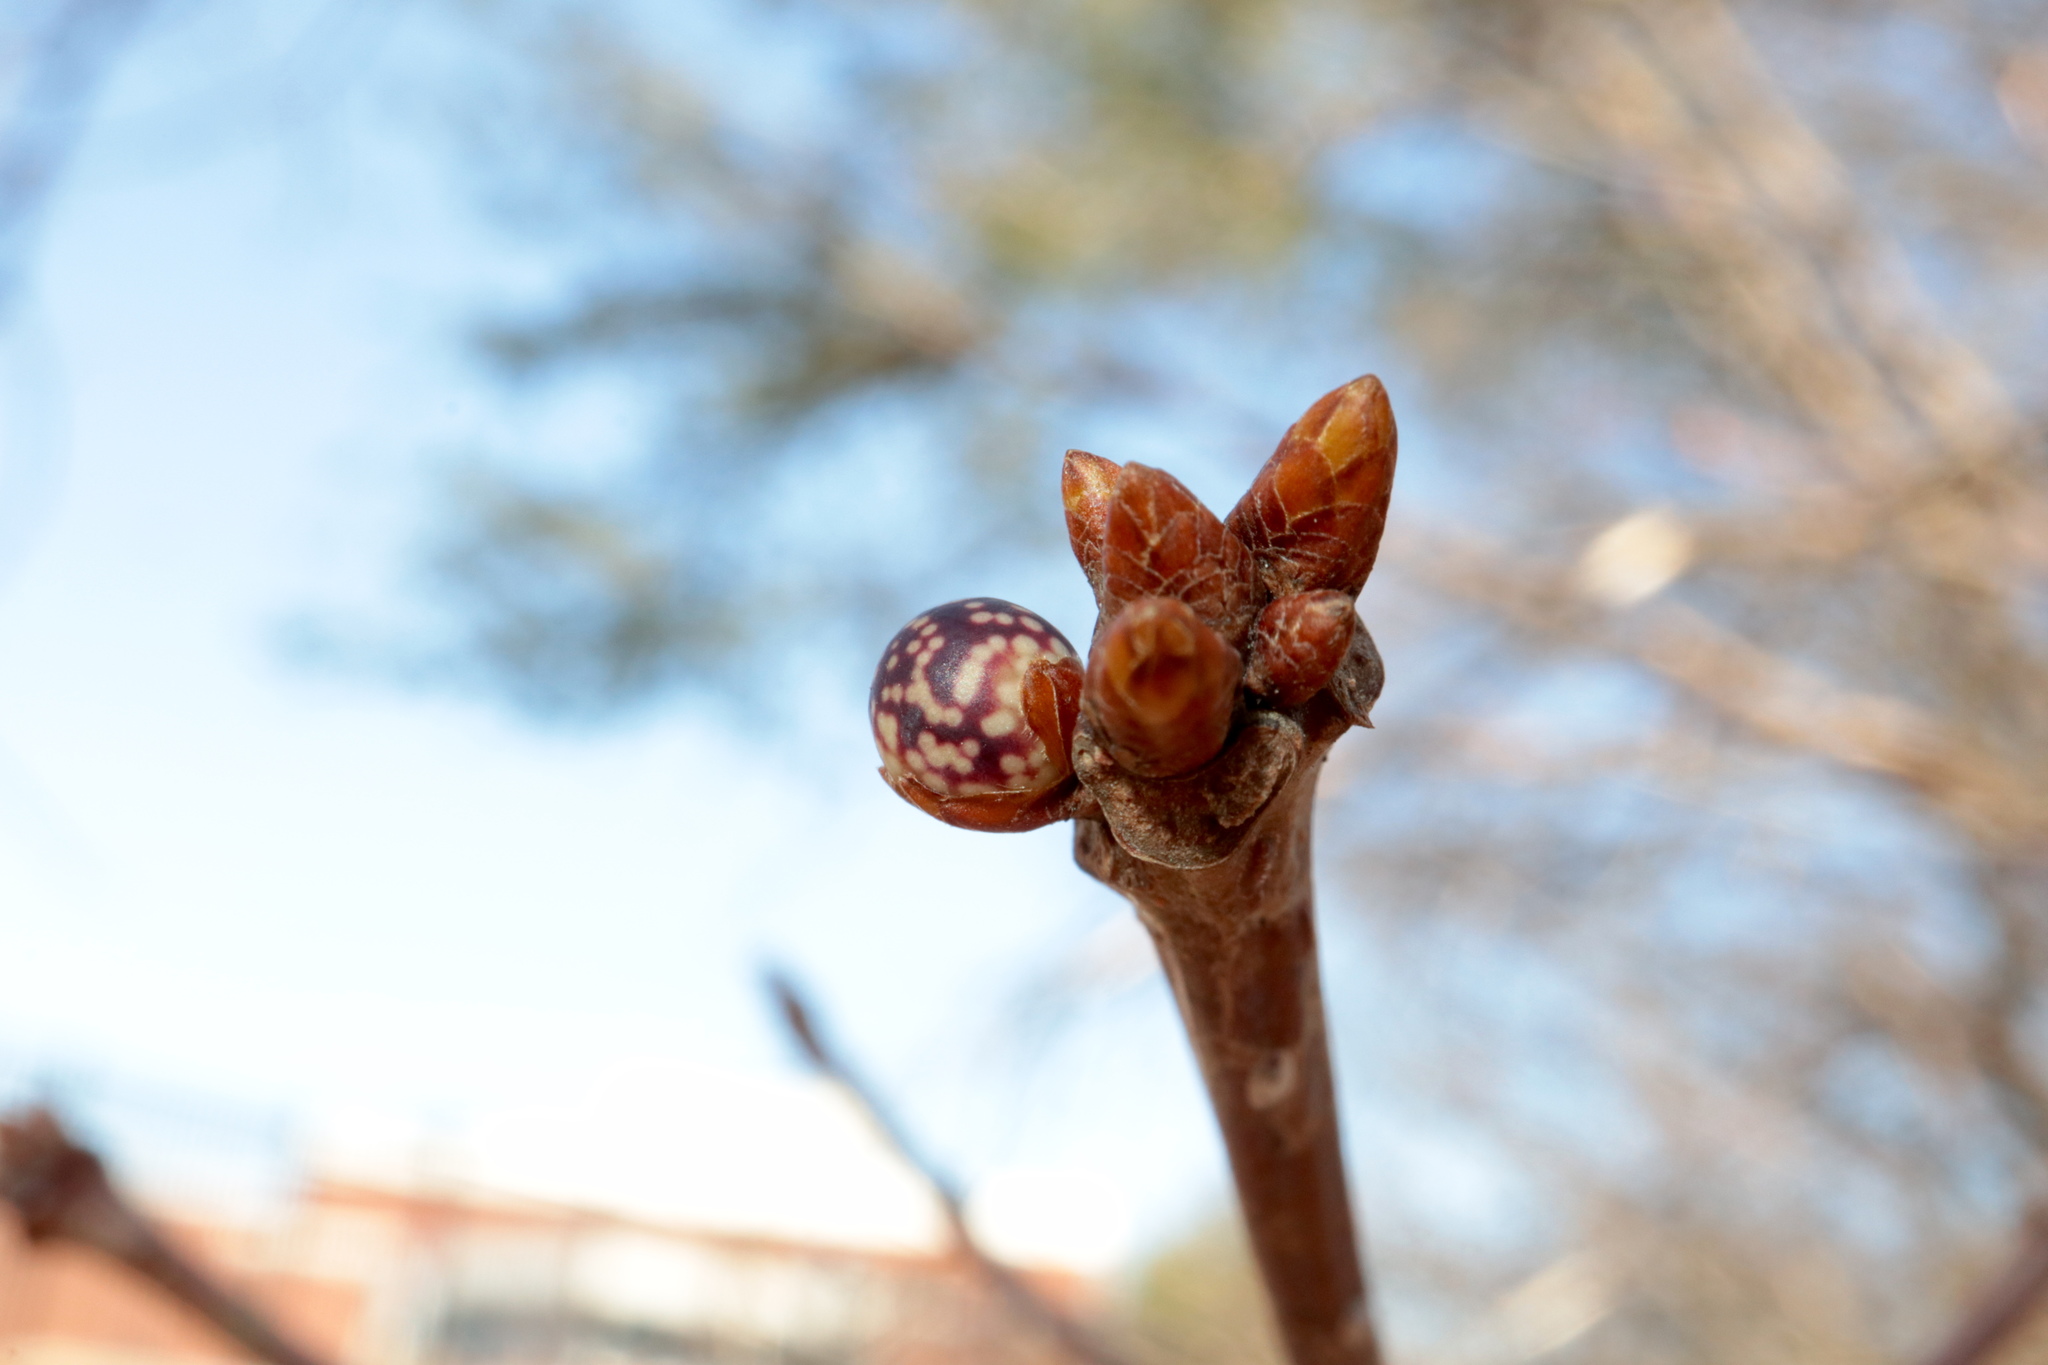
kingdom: Animalia
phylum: Arthropoda
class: Insecta
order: Hymenoptera
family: Cynipidae
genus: Andricus
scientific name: Andricus
